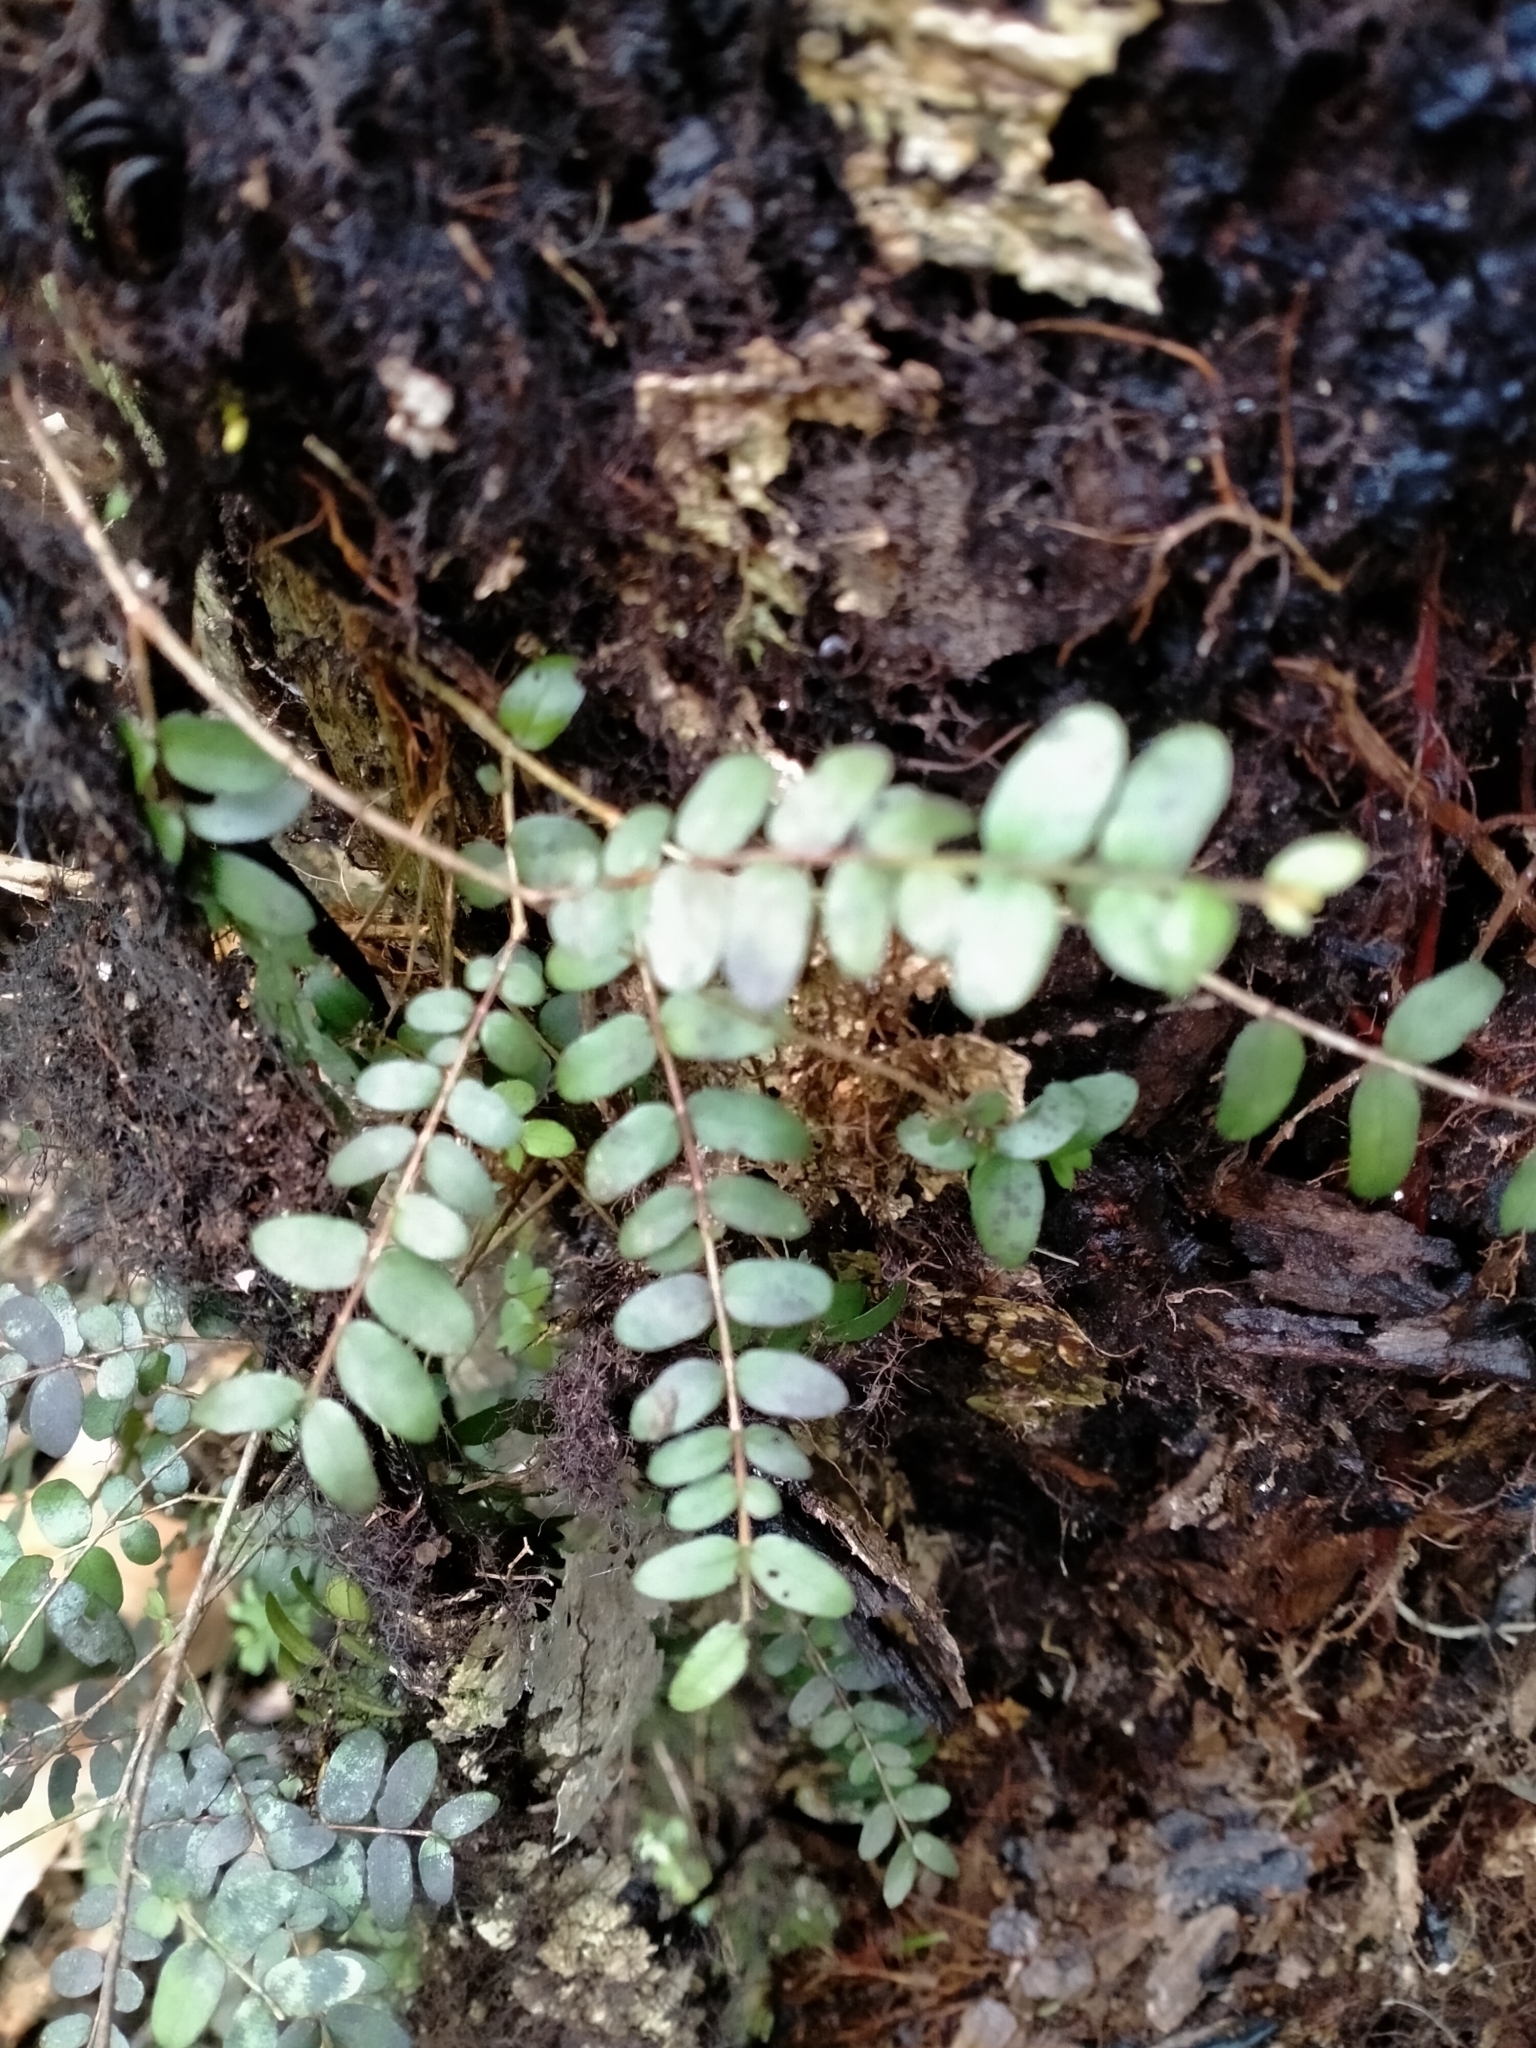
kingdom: Plantae
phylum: Tracheophyta
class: Magnoliopsida
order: Myrtales
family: Myrtaceae
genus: Metrosideros
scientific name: Metrosideros diffusa
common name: Small ratavine
